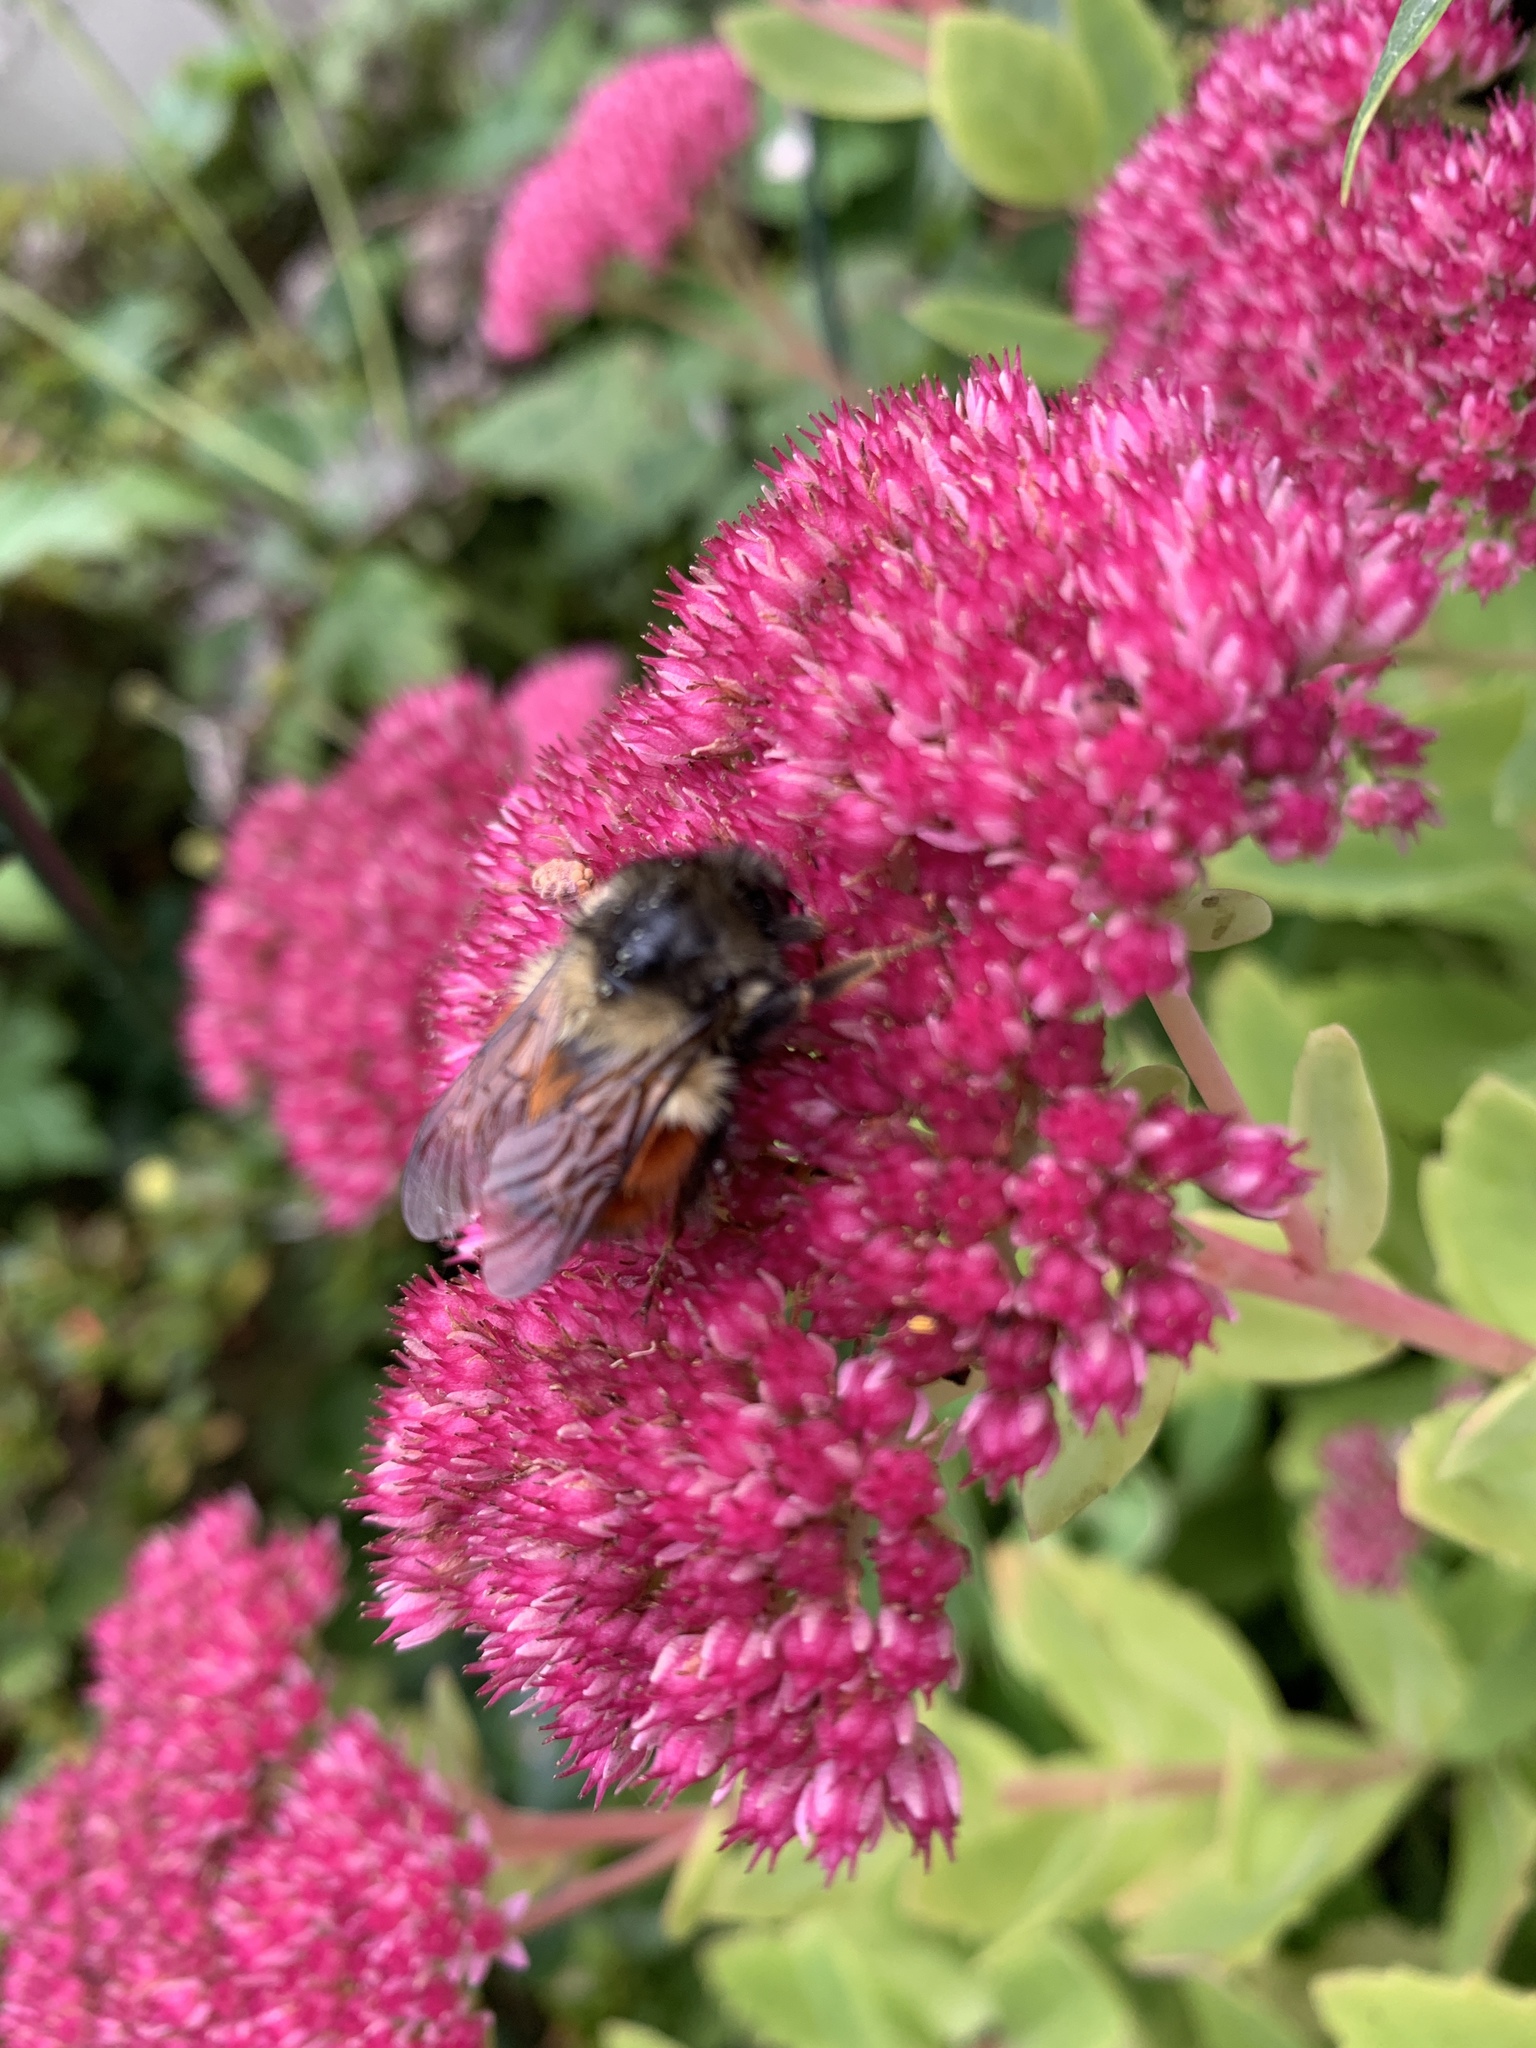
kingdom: Animalia
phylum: Arthropoda
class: Insecta
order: Hymenoptera
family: Apidae
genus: Bombus
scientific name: Bombus melanopygus
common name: Black tail bumble bee
